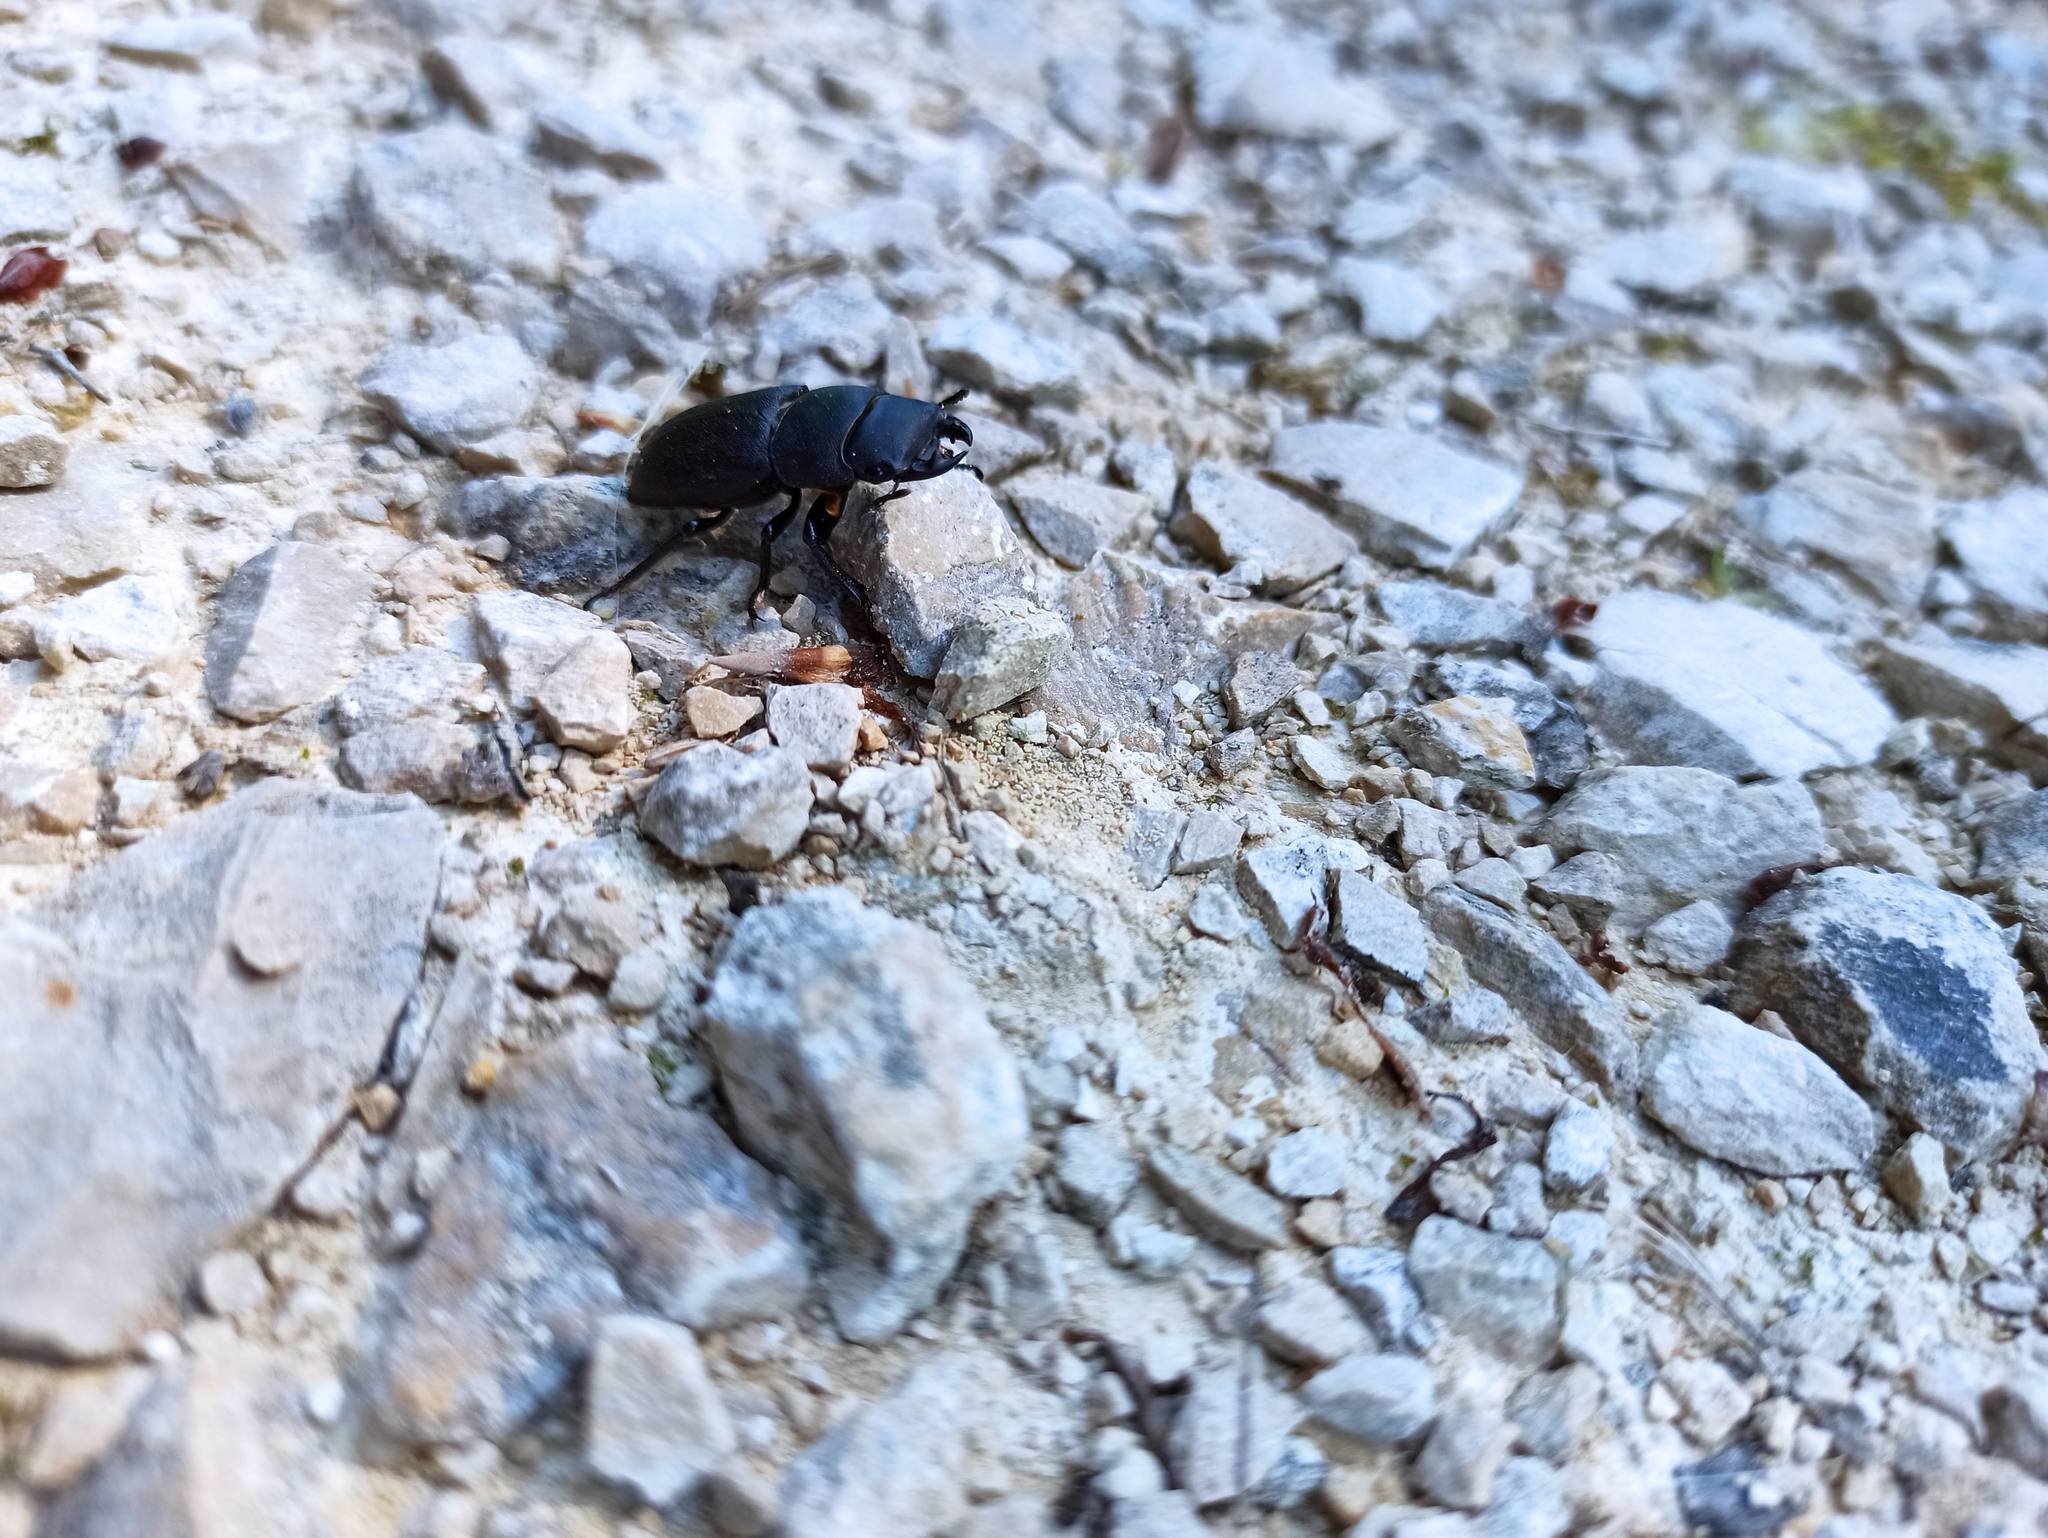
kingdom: Animalia
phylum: Arthropoda
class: Insecta
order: Coleoptera
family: Lucanidae
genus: Dorcus
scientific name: Dorcus parallelipipedus
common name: Lesser stag beetle
